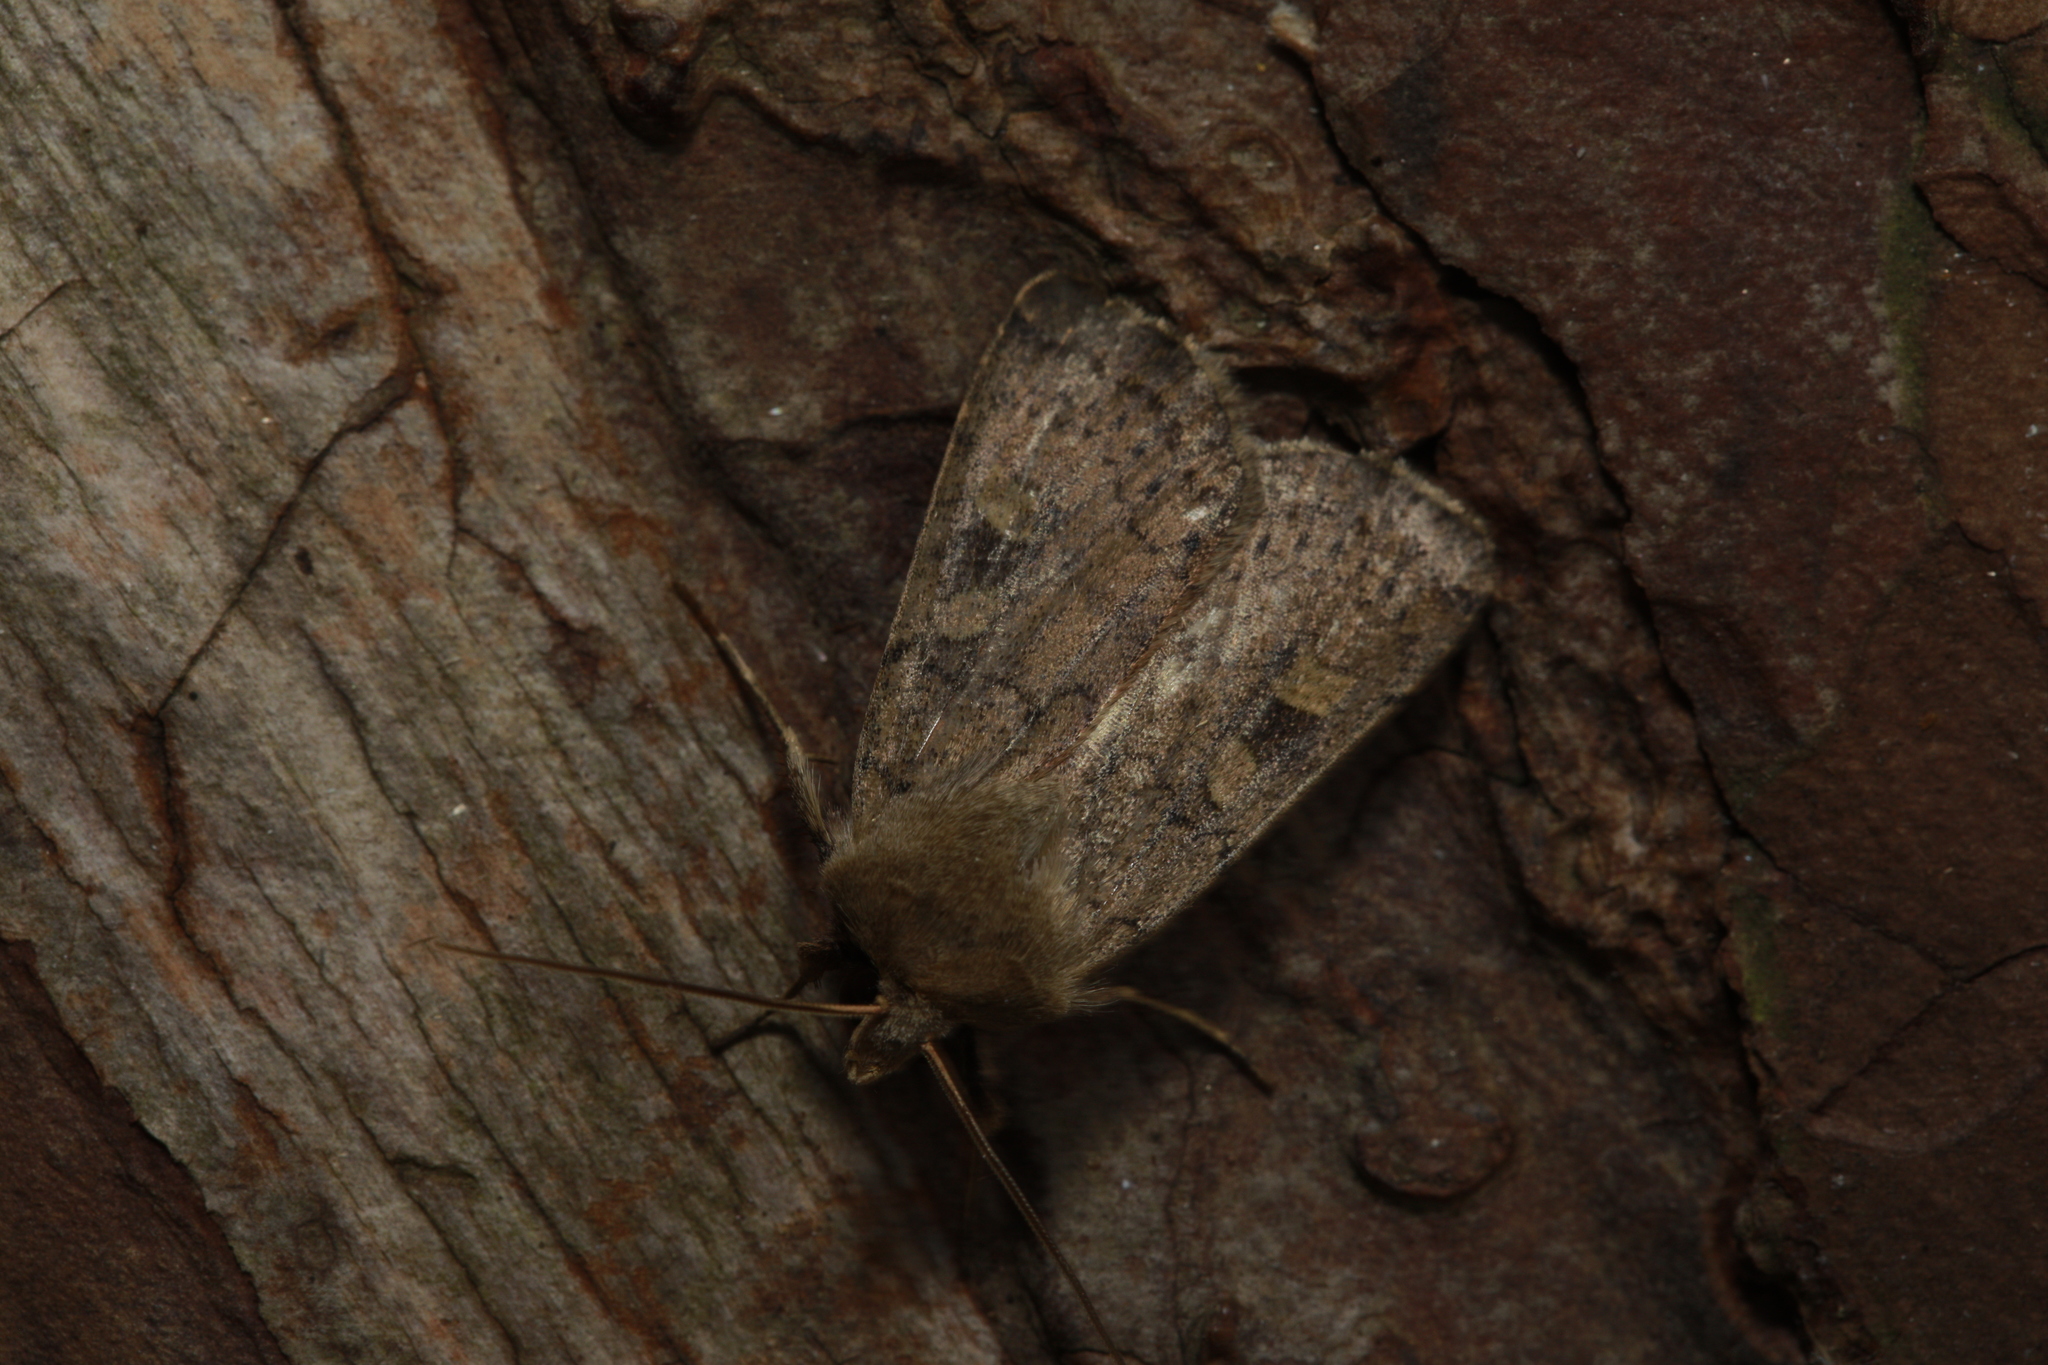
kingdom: Animalia
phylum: Arthropoda
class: Insecta
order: Lepidoptera
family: Noctuidae
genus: Xestia
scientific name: Xestia xanthographa
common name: Square-spot rustic
